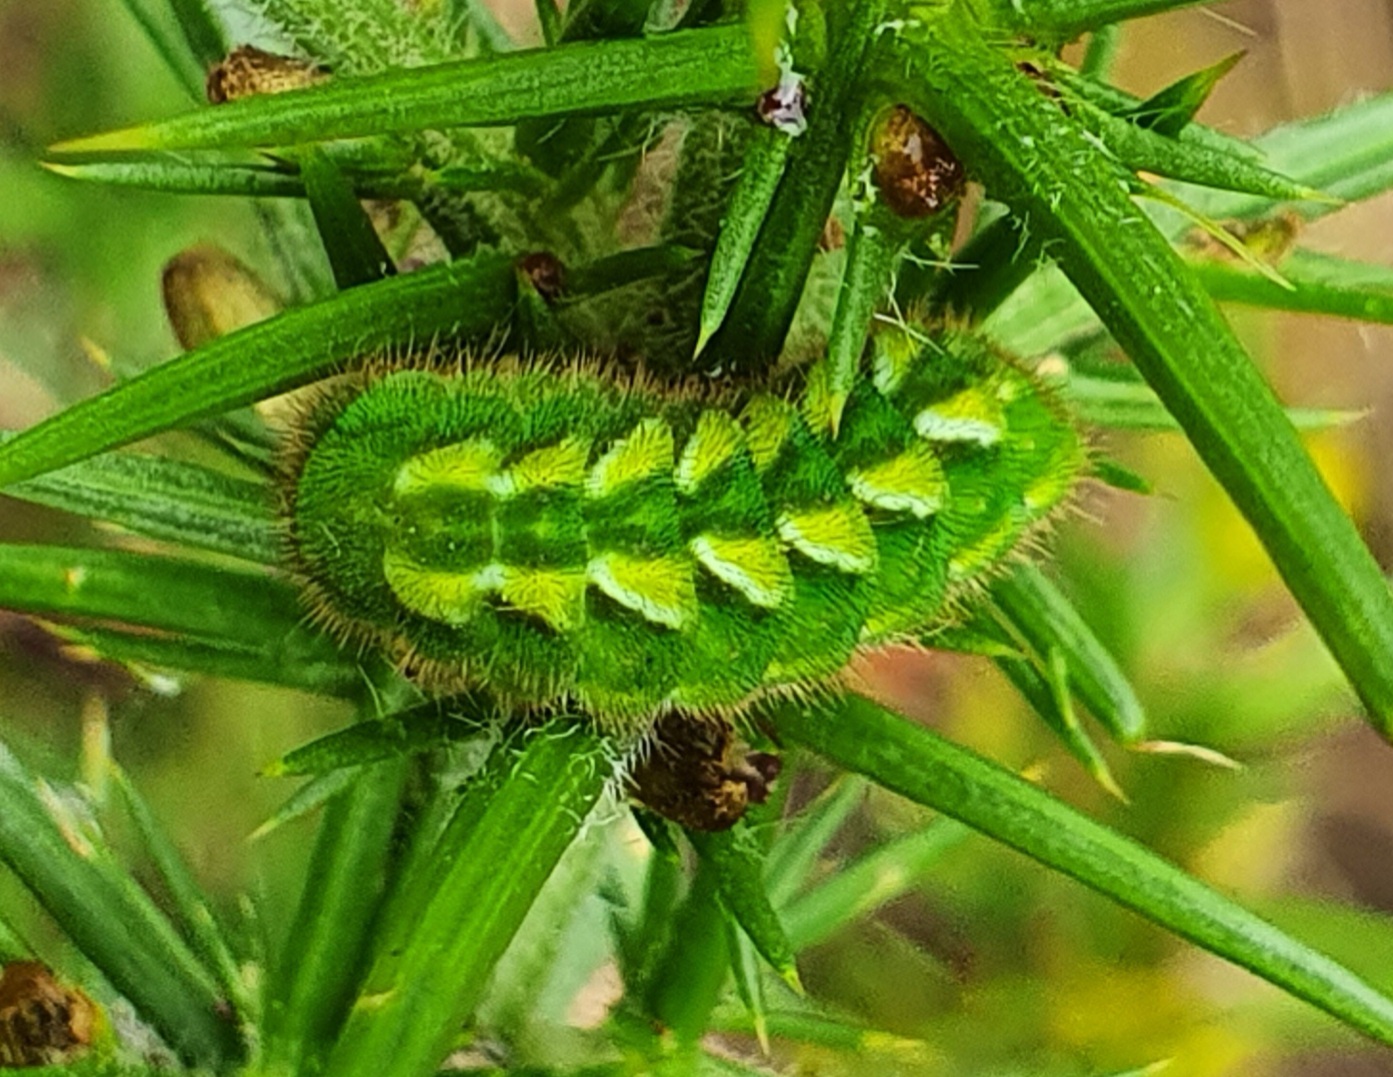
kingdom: Animalia
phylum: Arthropoda
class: Insecta
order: Lepidoptera
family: Lycaenidae
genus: Callophrys
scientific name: Callophrys rubi
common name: Green hairstreak
